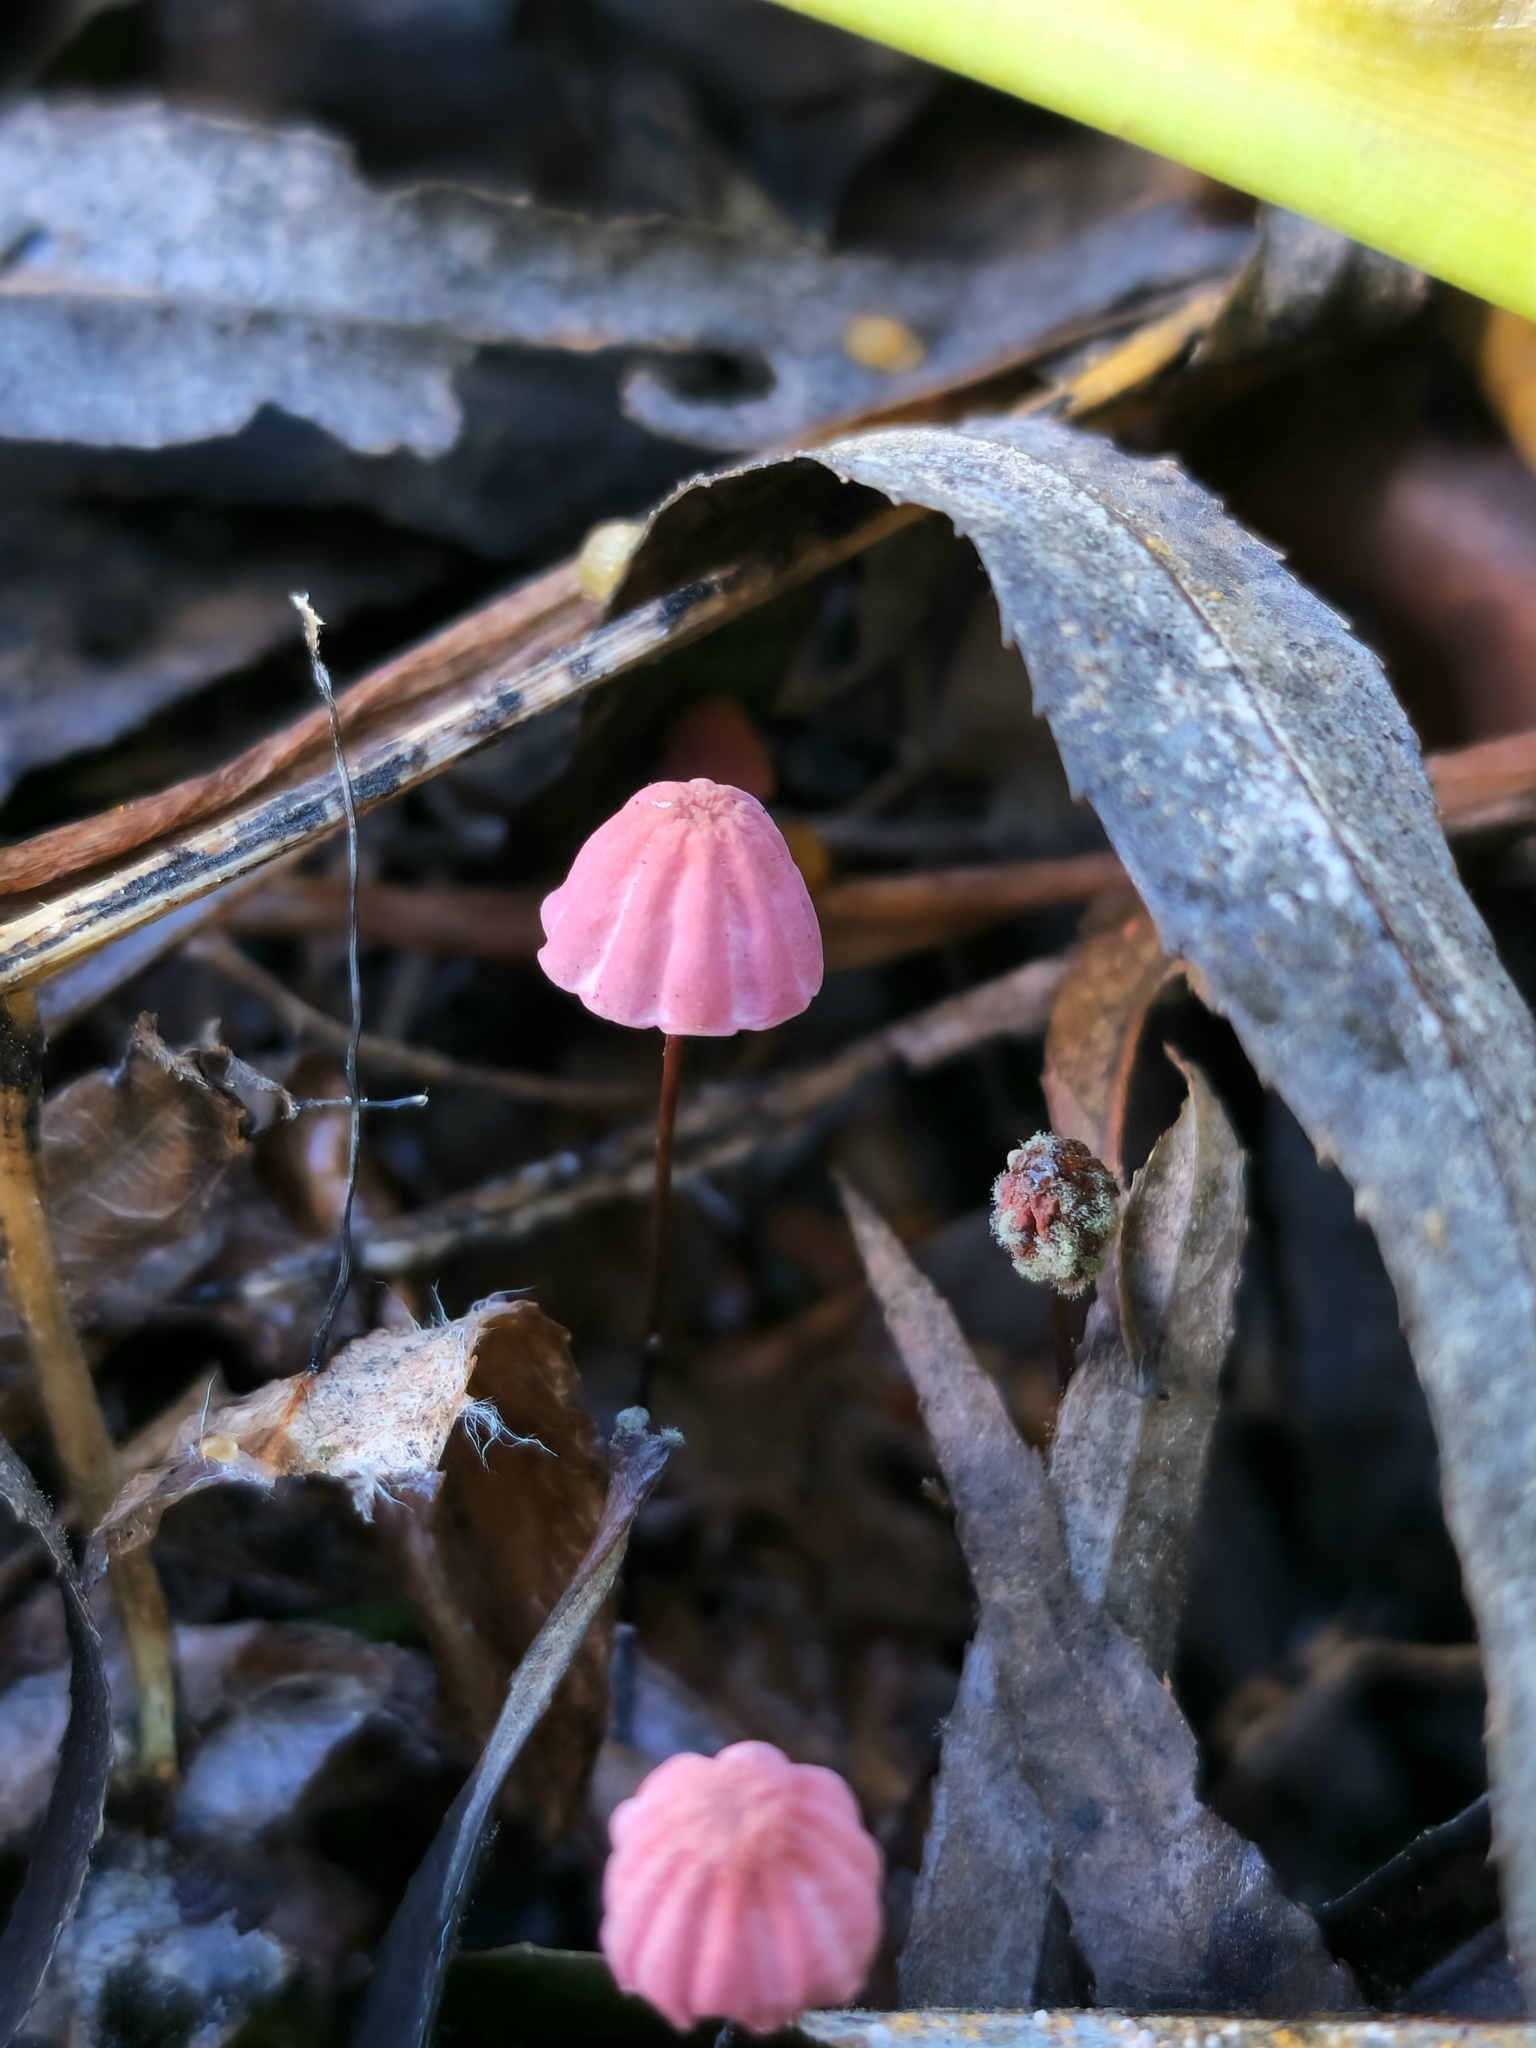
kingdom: Fungi
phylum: Basidiomycota
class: Agaricomycetes
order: Agaricales
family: Marasmiaceae
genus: Marasmius
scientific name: Marasmius haematocephalus
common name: Purple pinwheel
